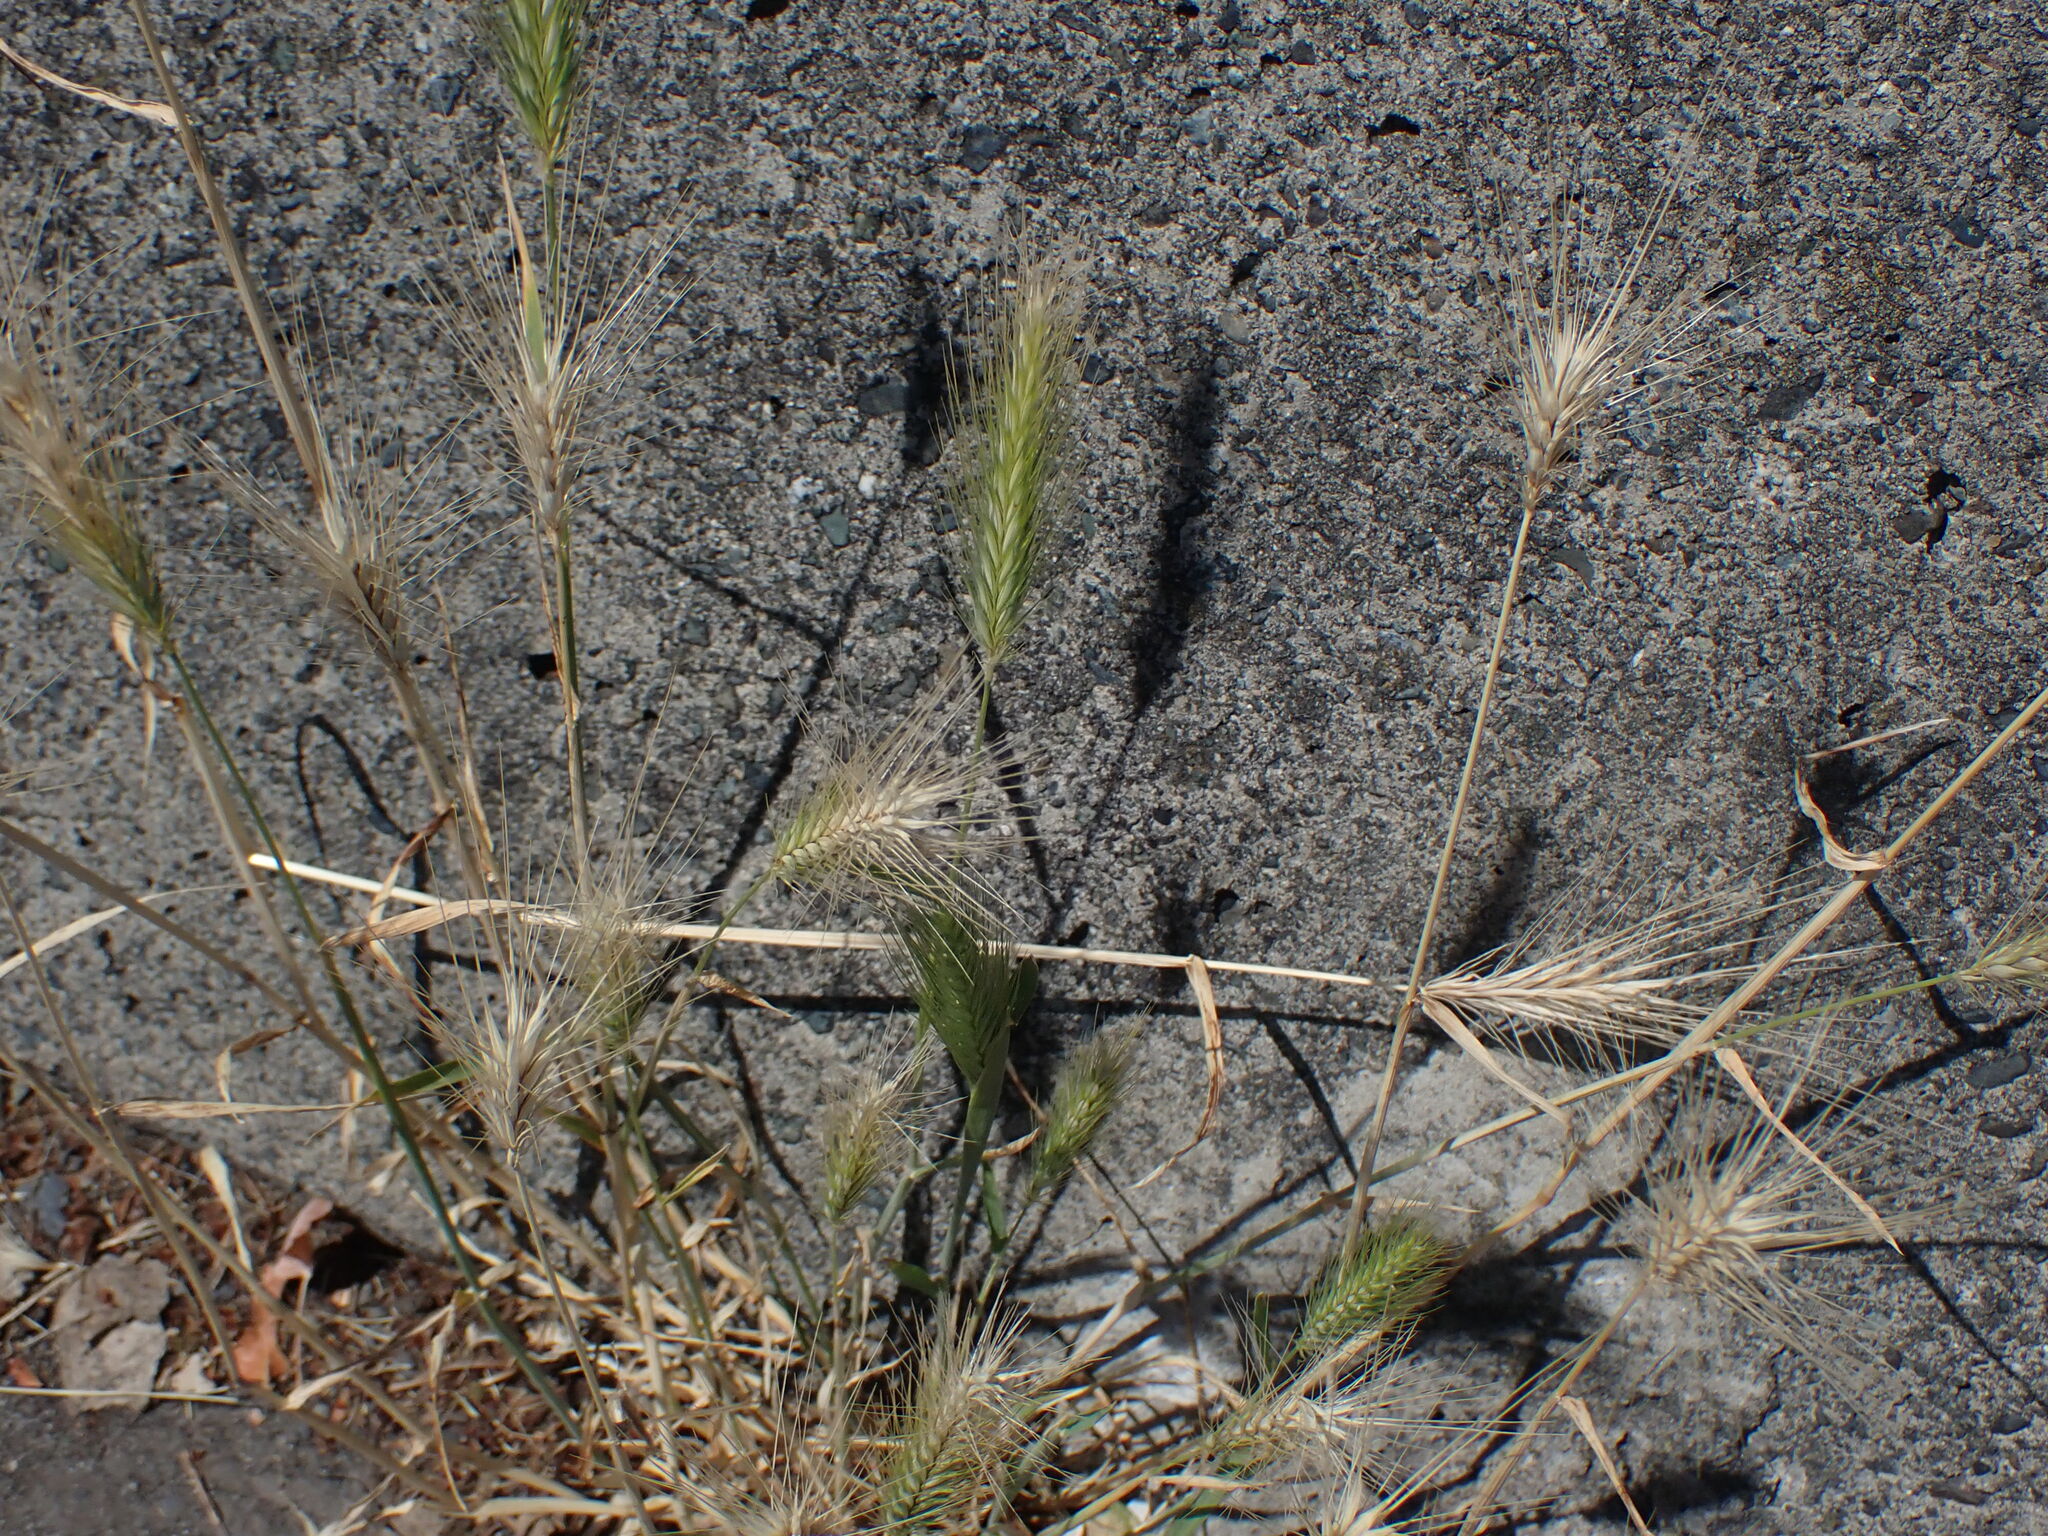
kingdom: Plantae
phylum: Tracheophyta
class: Liliopsida
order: Poales
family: Poaceae
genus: Hordeum
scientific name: Hordeum murinum
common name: Wall barley
